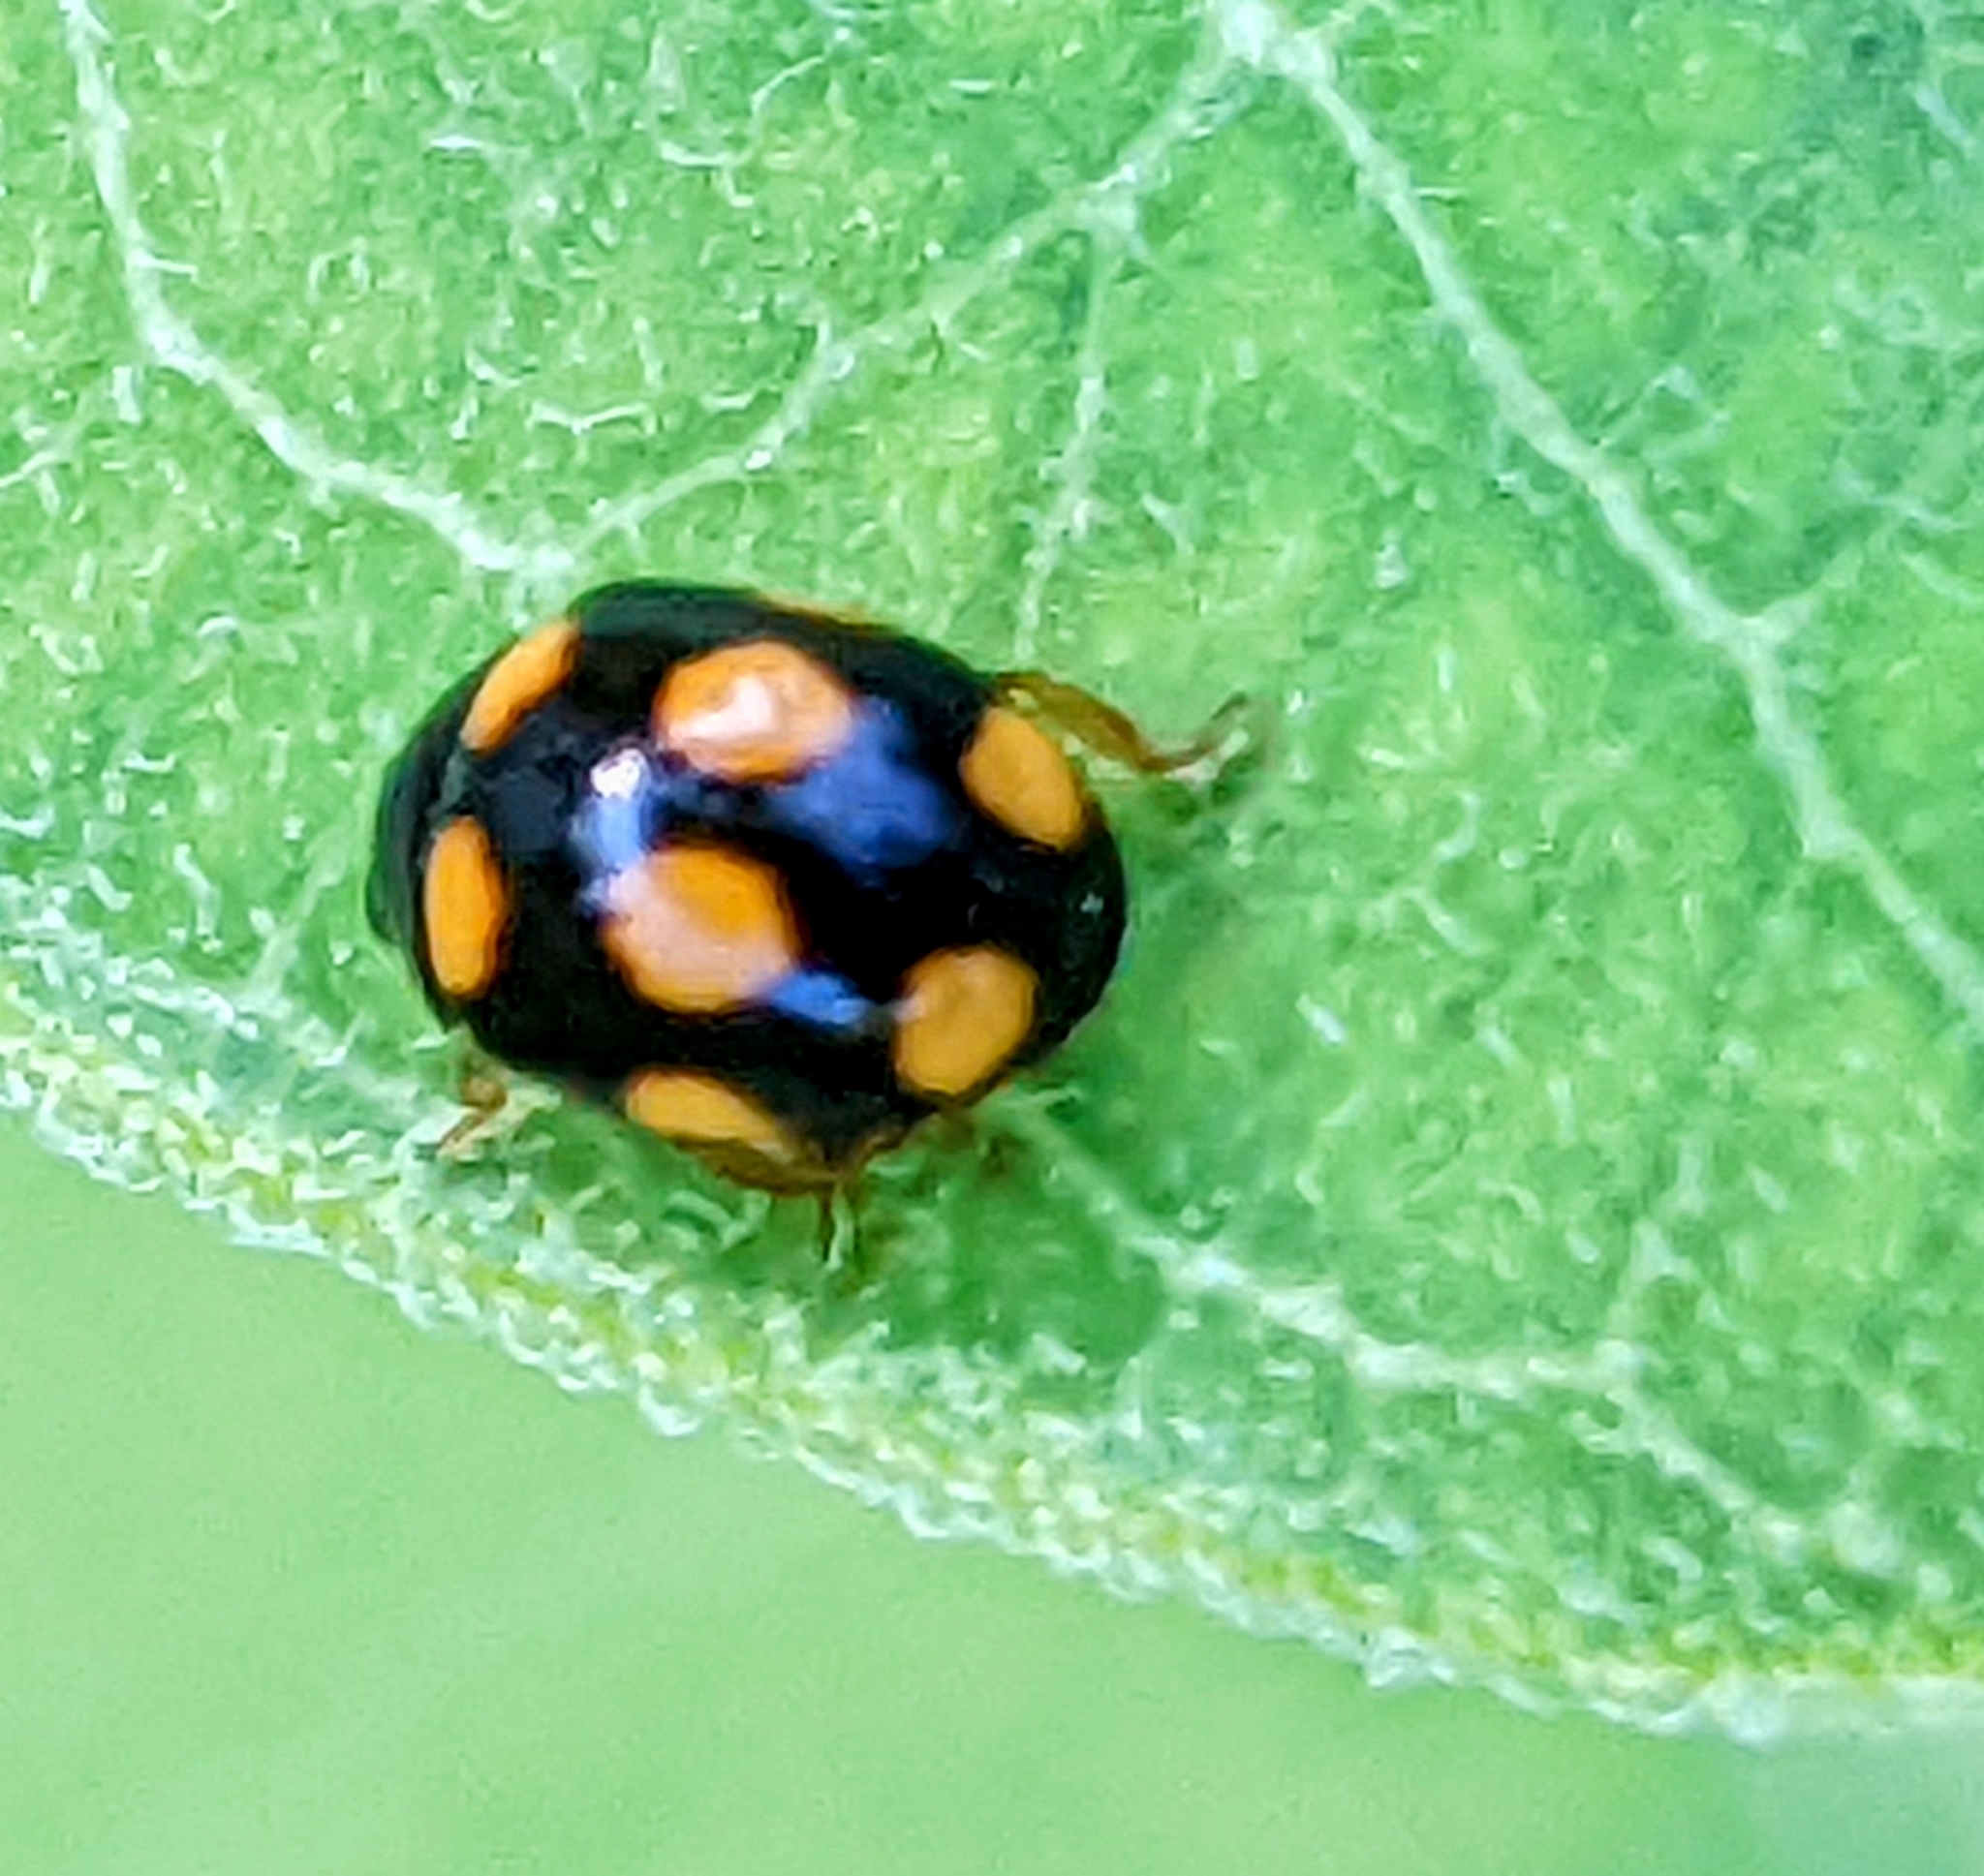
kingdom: Animalia
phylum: Arthropoda
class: Insecta
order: Coleoptera
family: Coccinellidae
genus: Brachiacantha
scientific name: Brachiacantha ursina
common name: Ursine spurleg lady beetle
